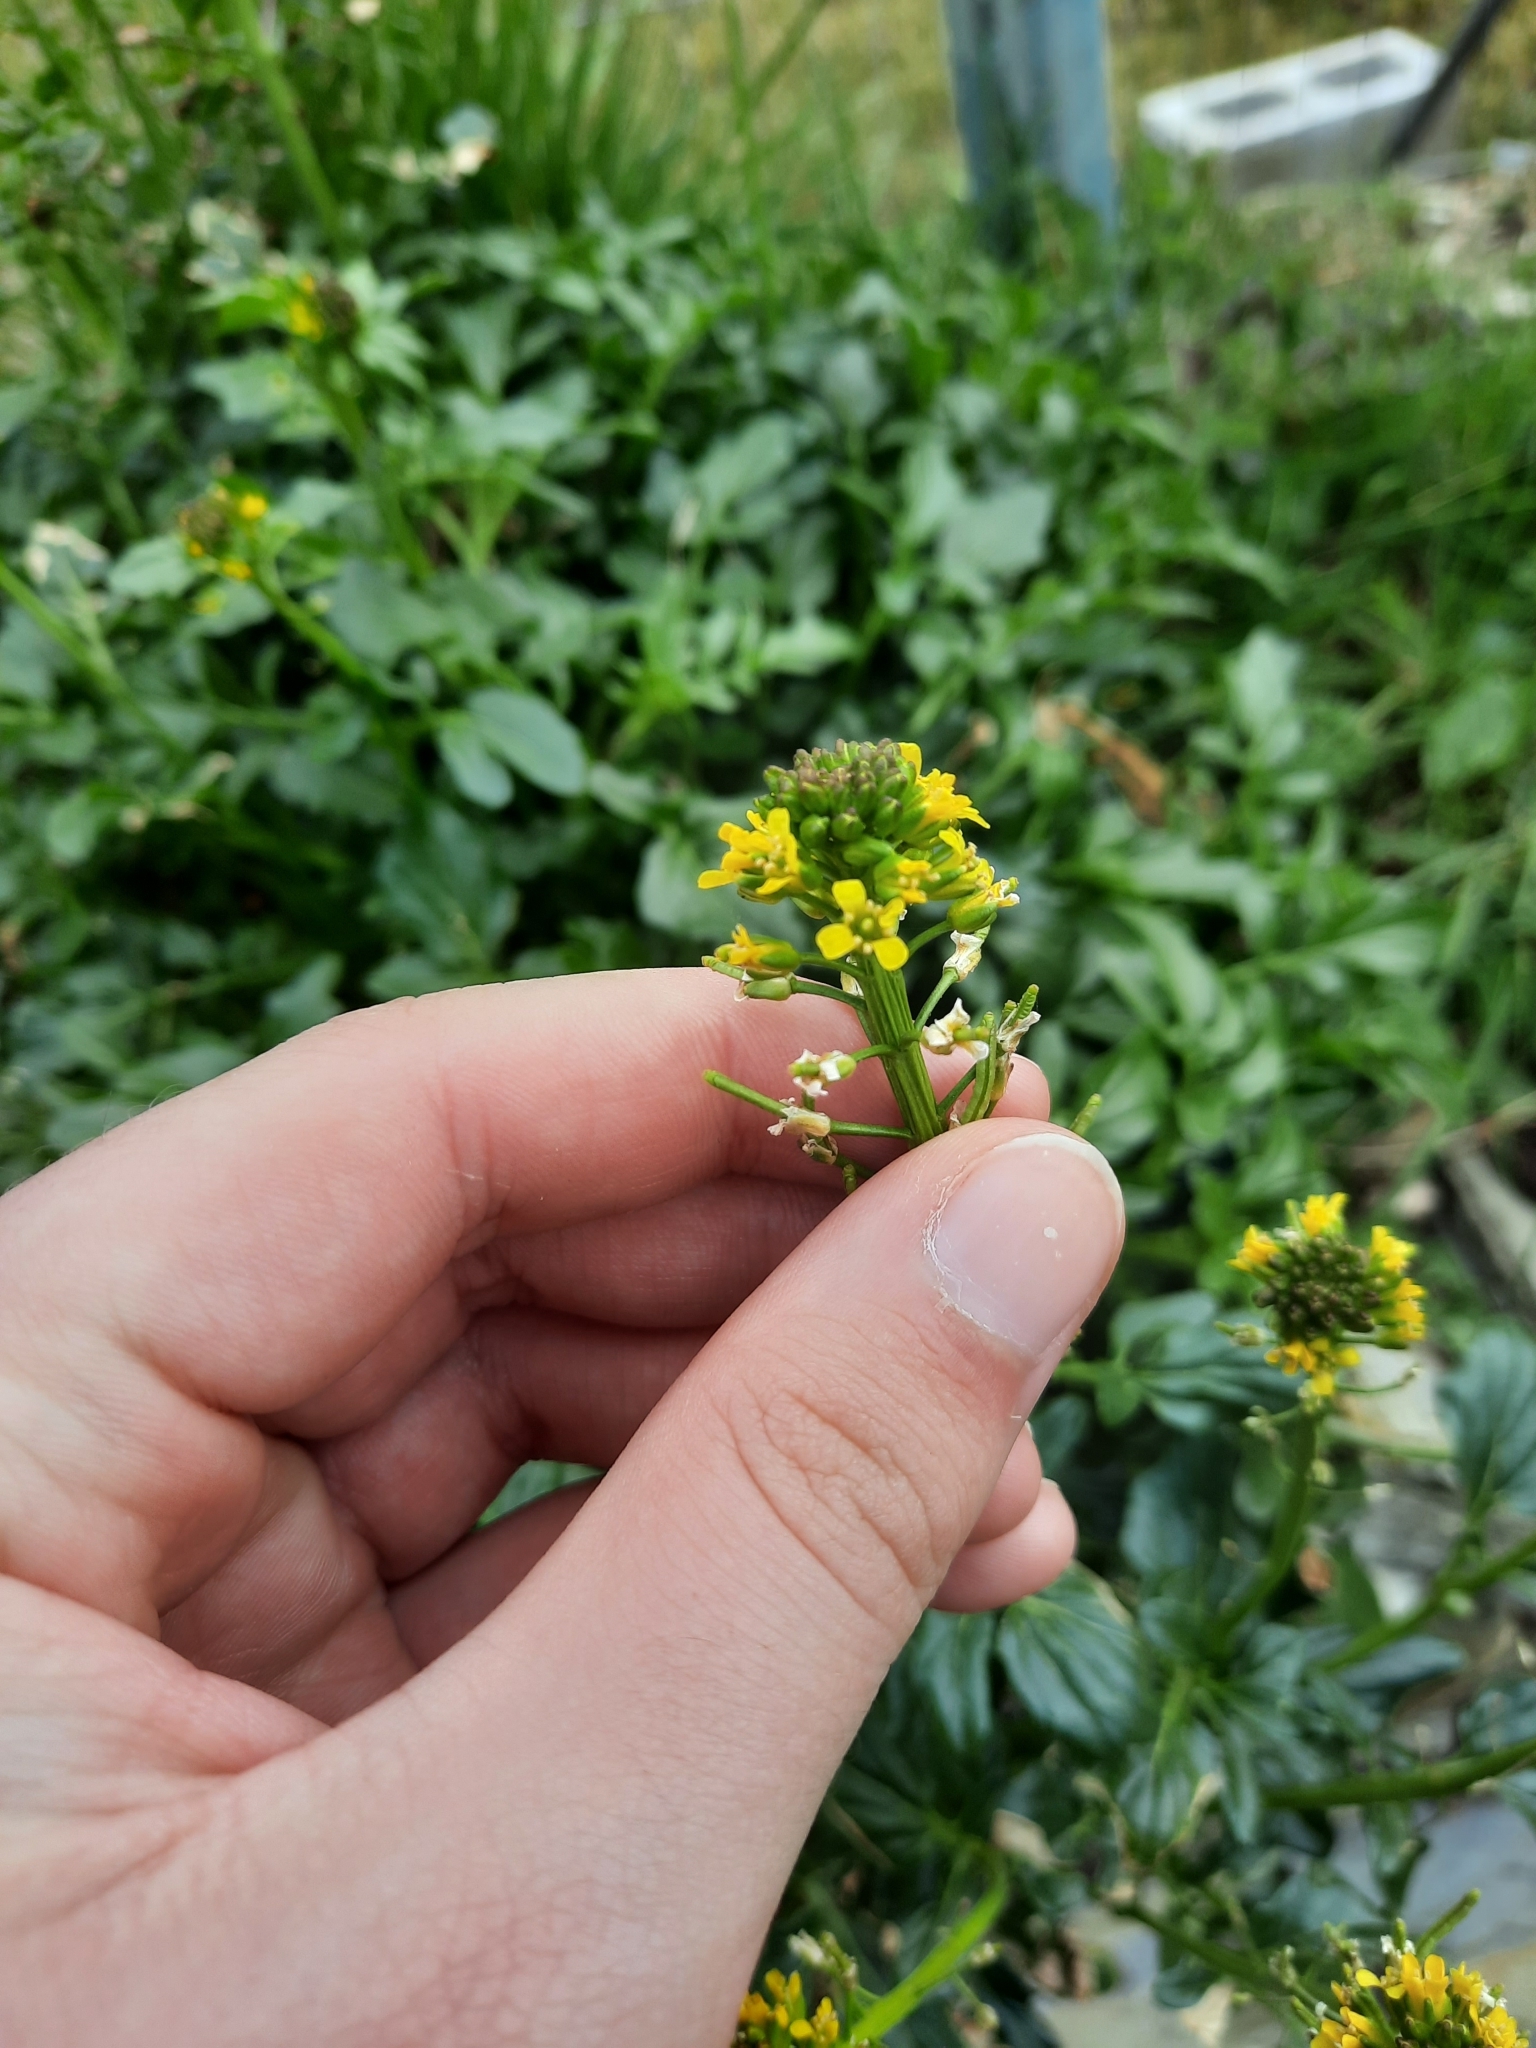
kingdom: Plantae
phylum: Tracheophyta
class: Magnoliopsida
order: Brassicales
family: Brassicaceae
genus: Barbarea
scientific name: Barbarea vulgaris
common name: Cressy-greens
